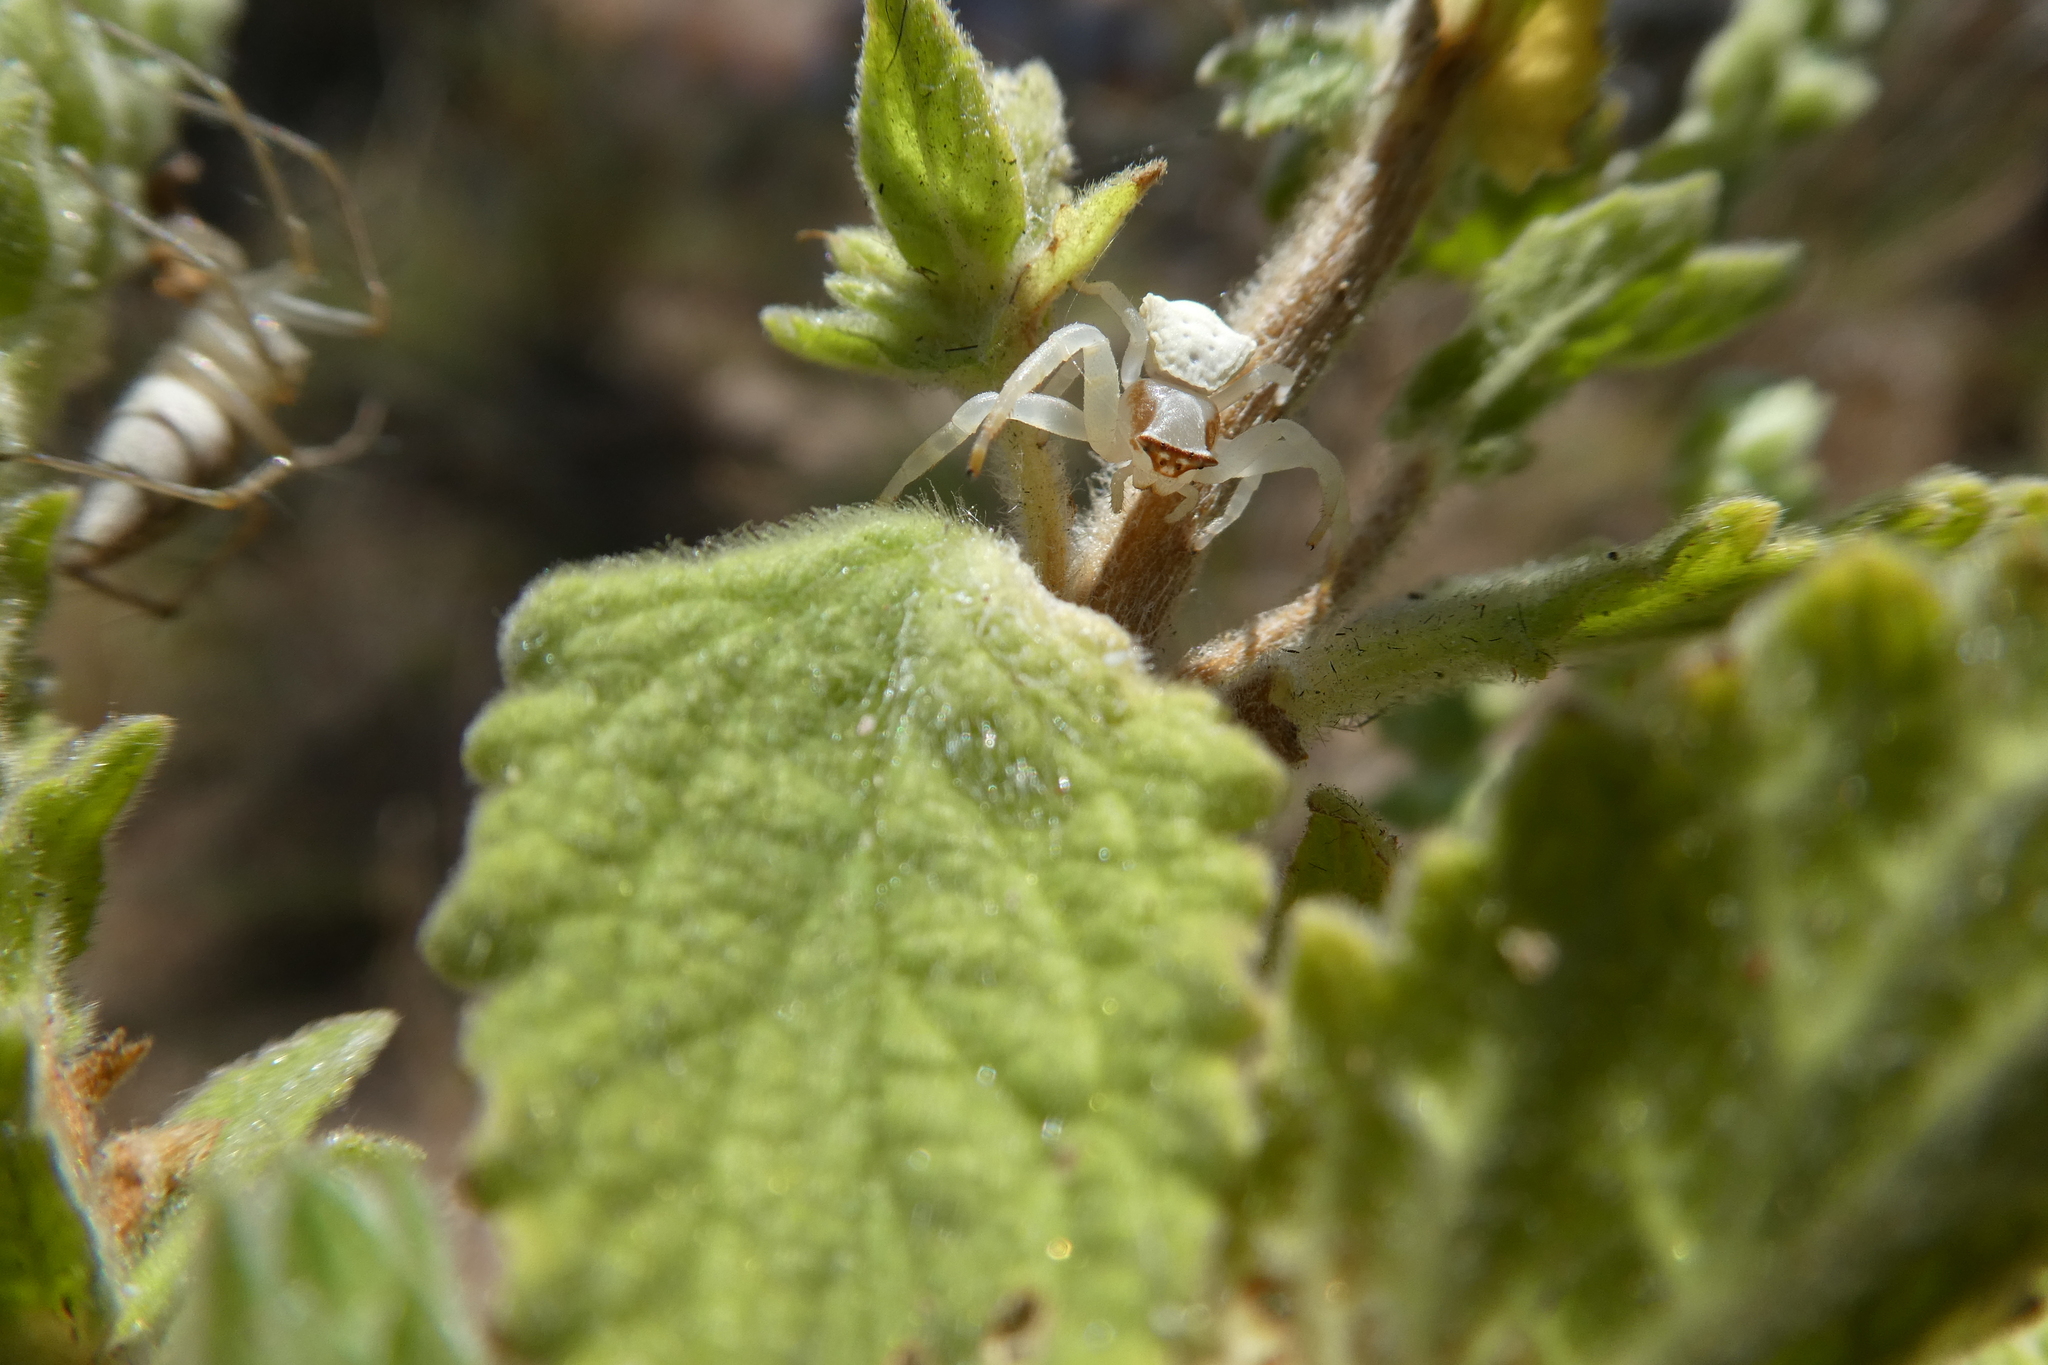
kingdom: Animalia
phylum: Arthropoda
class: Arachnida
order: Araneae
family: Thomisidae
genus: Thomisus
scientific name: Thomisus spectabilis
